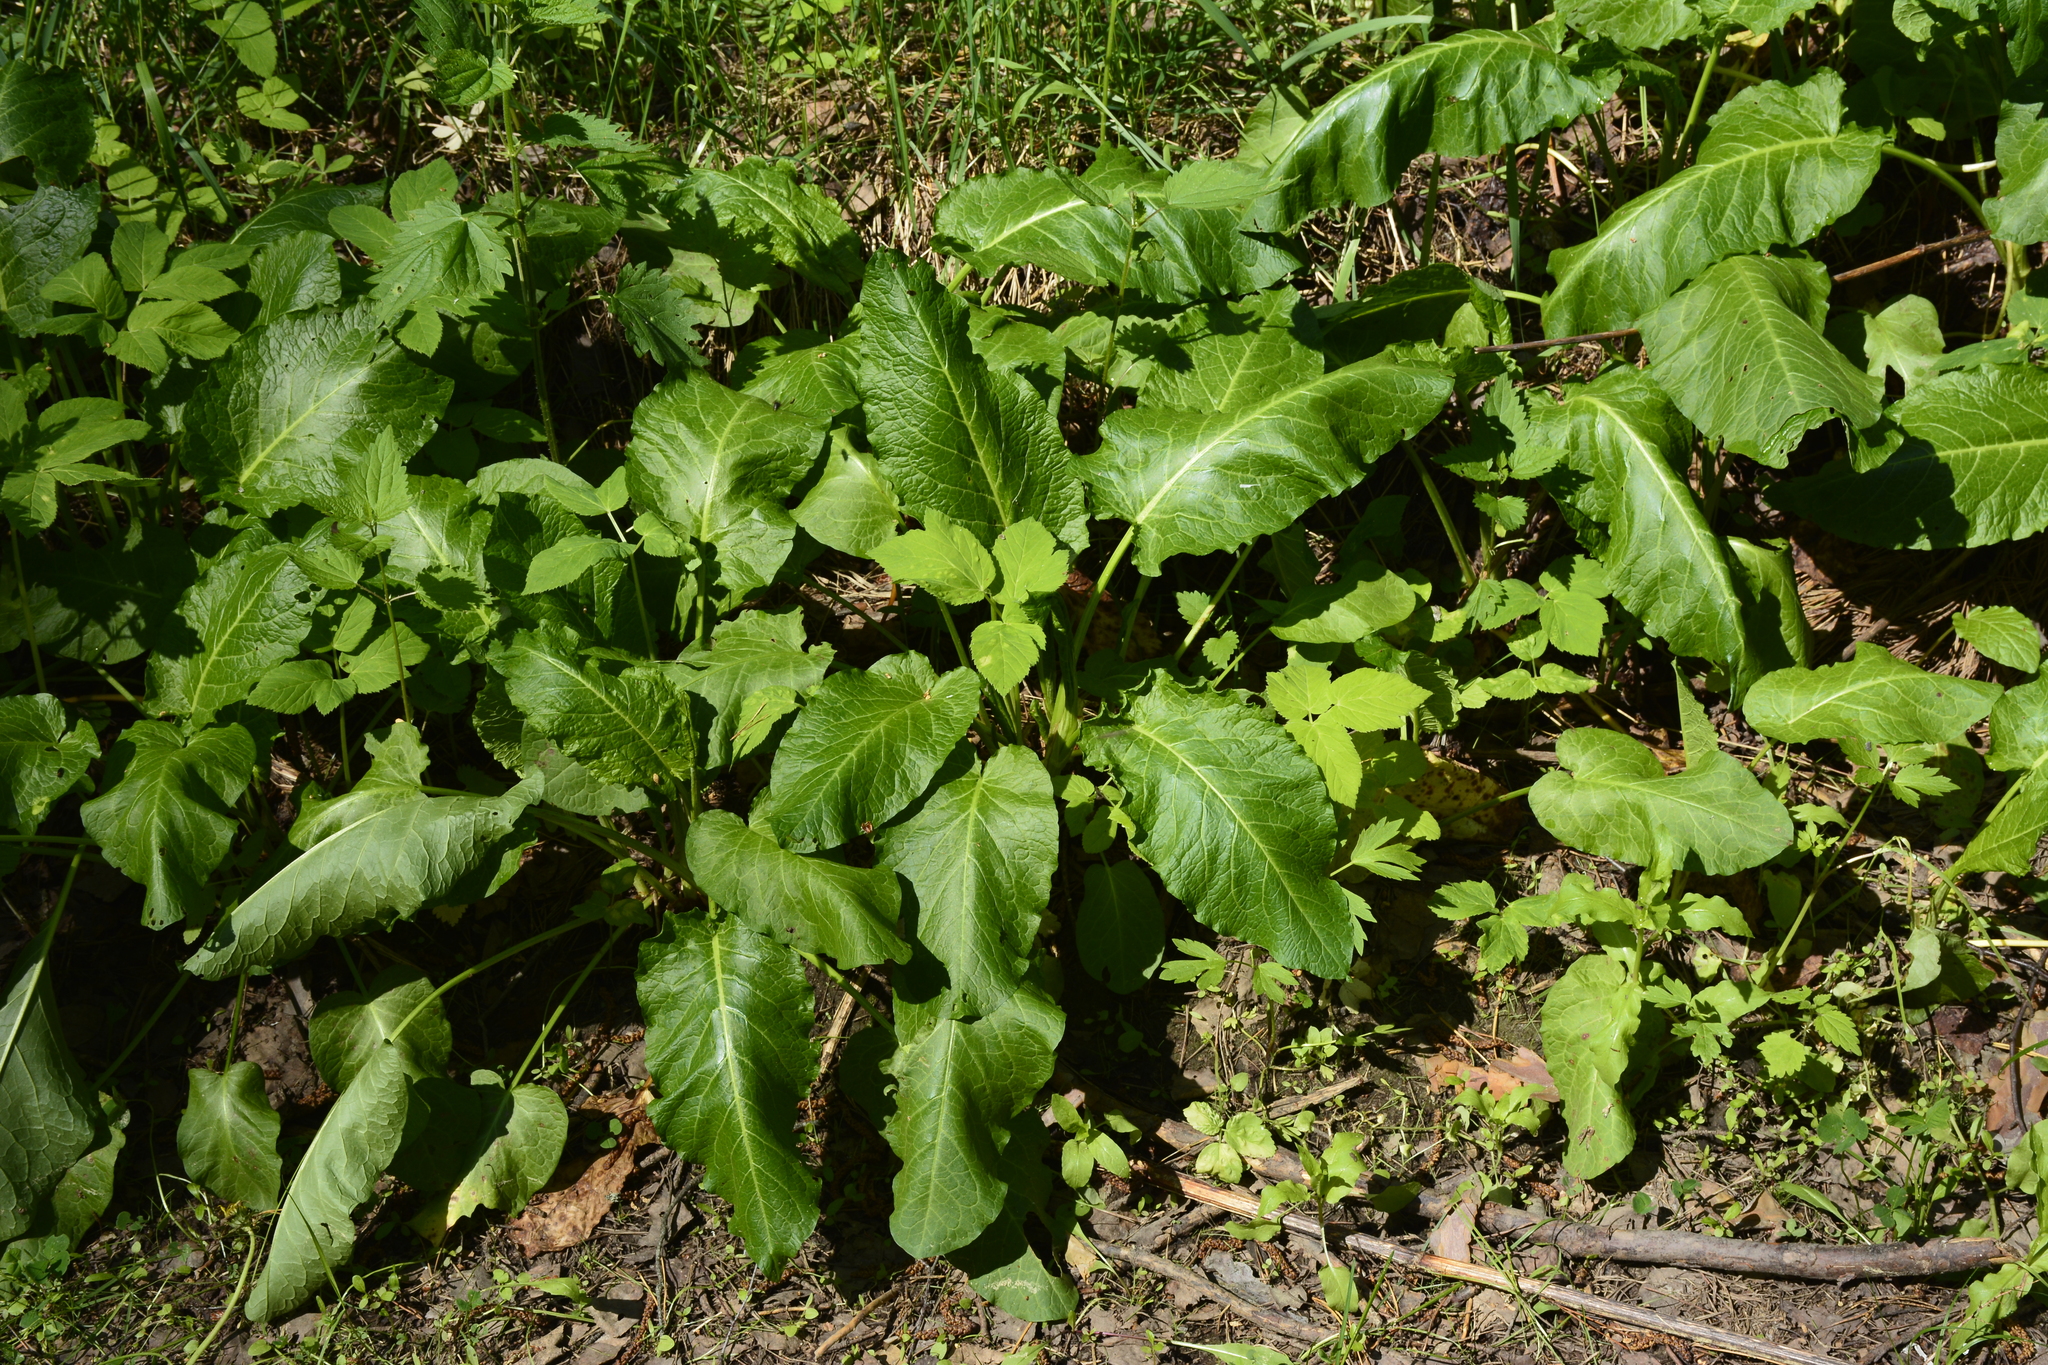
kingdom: Plantae
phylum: Tracheophyta
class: Magnoliopsida
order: Caryophyllales
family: Polygonaceae
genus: Rumex
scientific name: Rumex obtusifolius
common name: Bitter dock
